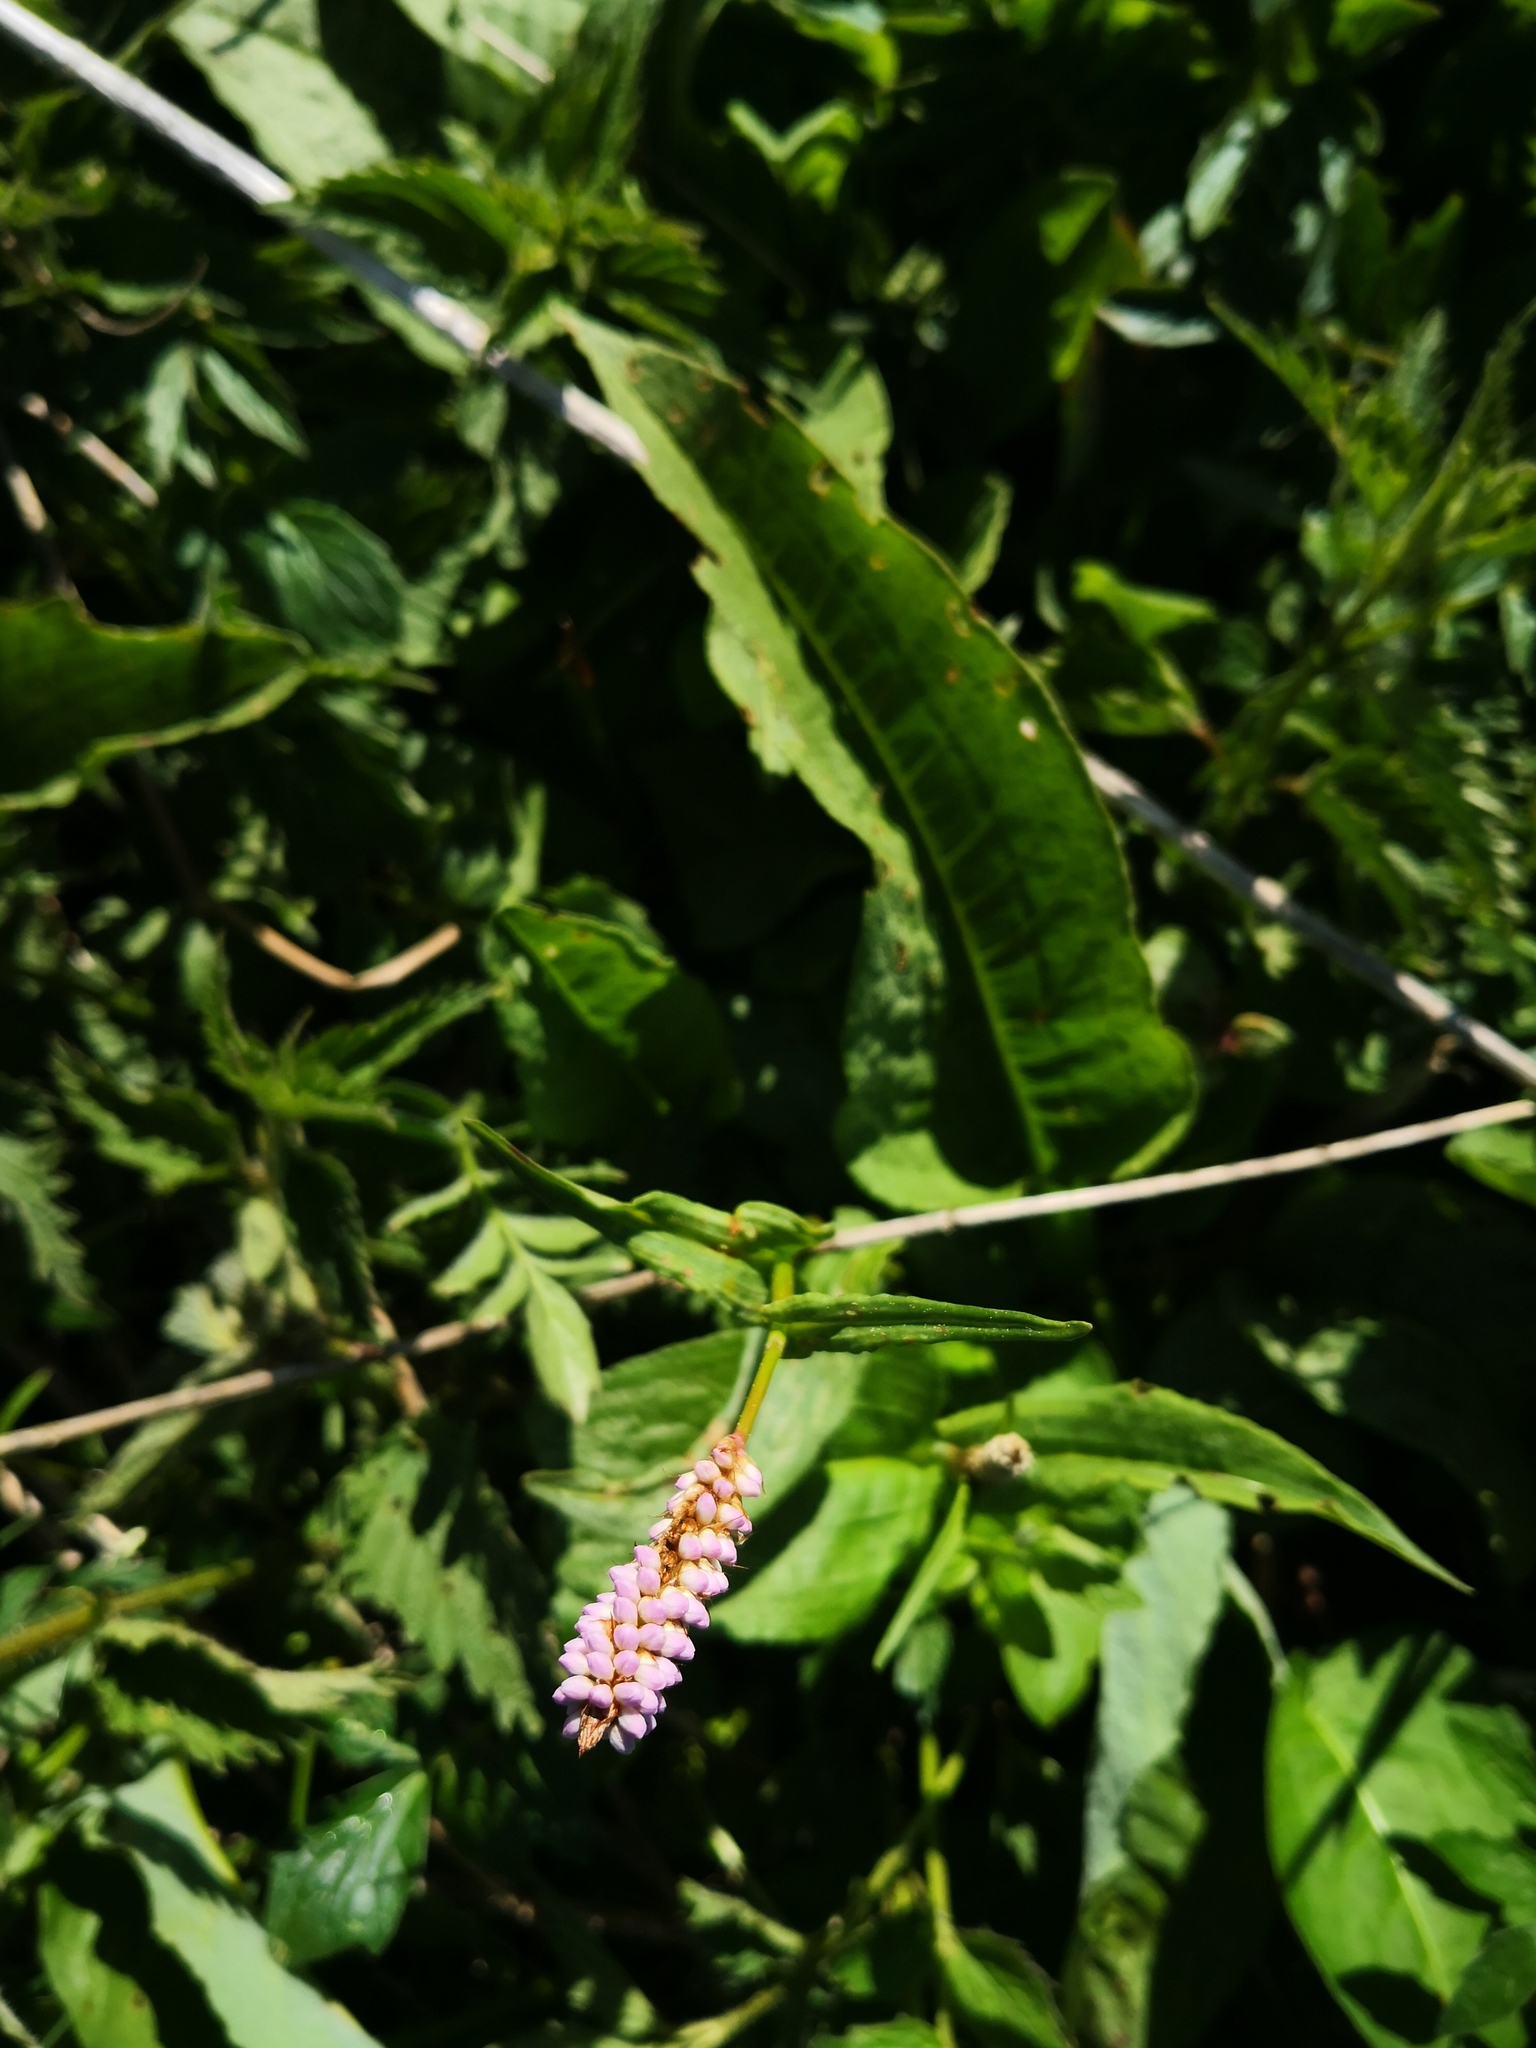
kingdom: Plantae
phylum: Tracheophyta
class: Magnoliopsida
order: Caryophyllales
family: Polygonaceae
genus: Bistorta
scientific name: Bistorta officinalis
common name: Common bistort
